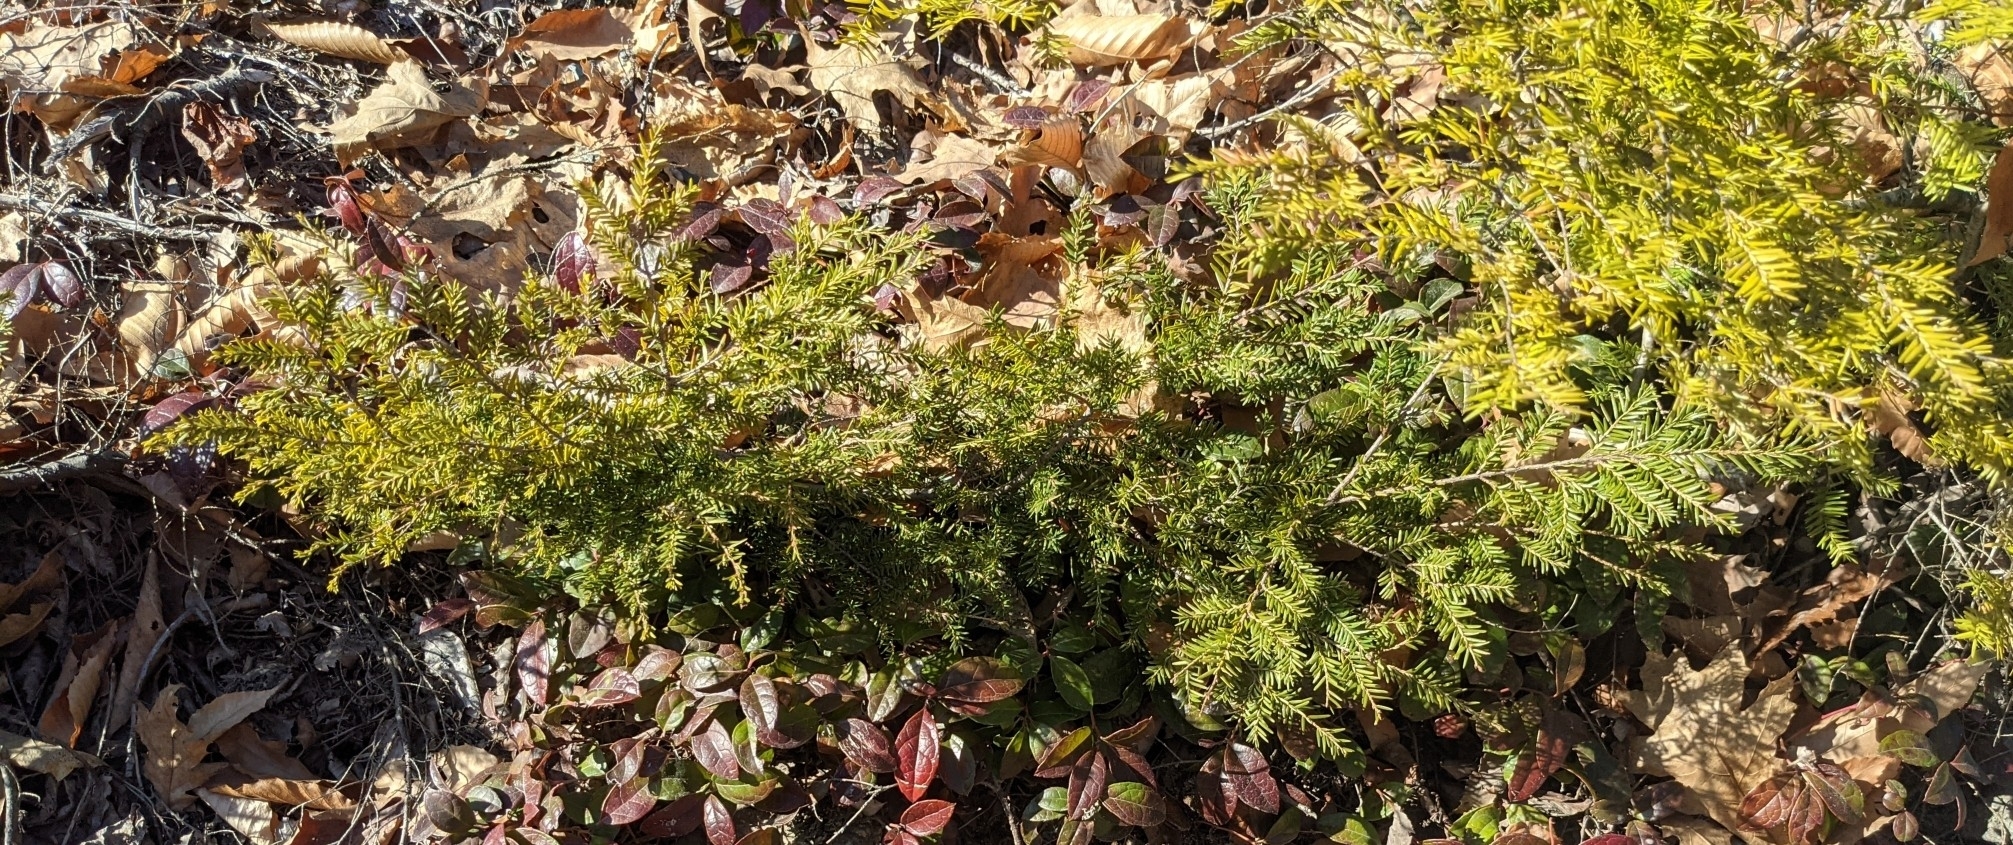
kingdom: Plantae
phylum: Tracheophyta
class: Pinopsida
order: Pinales
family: Pinaceae
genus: Tsuga
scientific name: Tsuga canadensis
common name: Eastern hemlock
